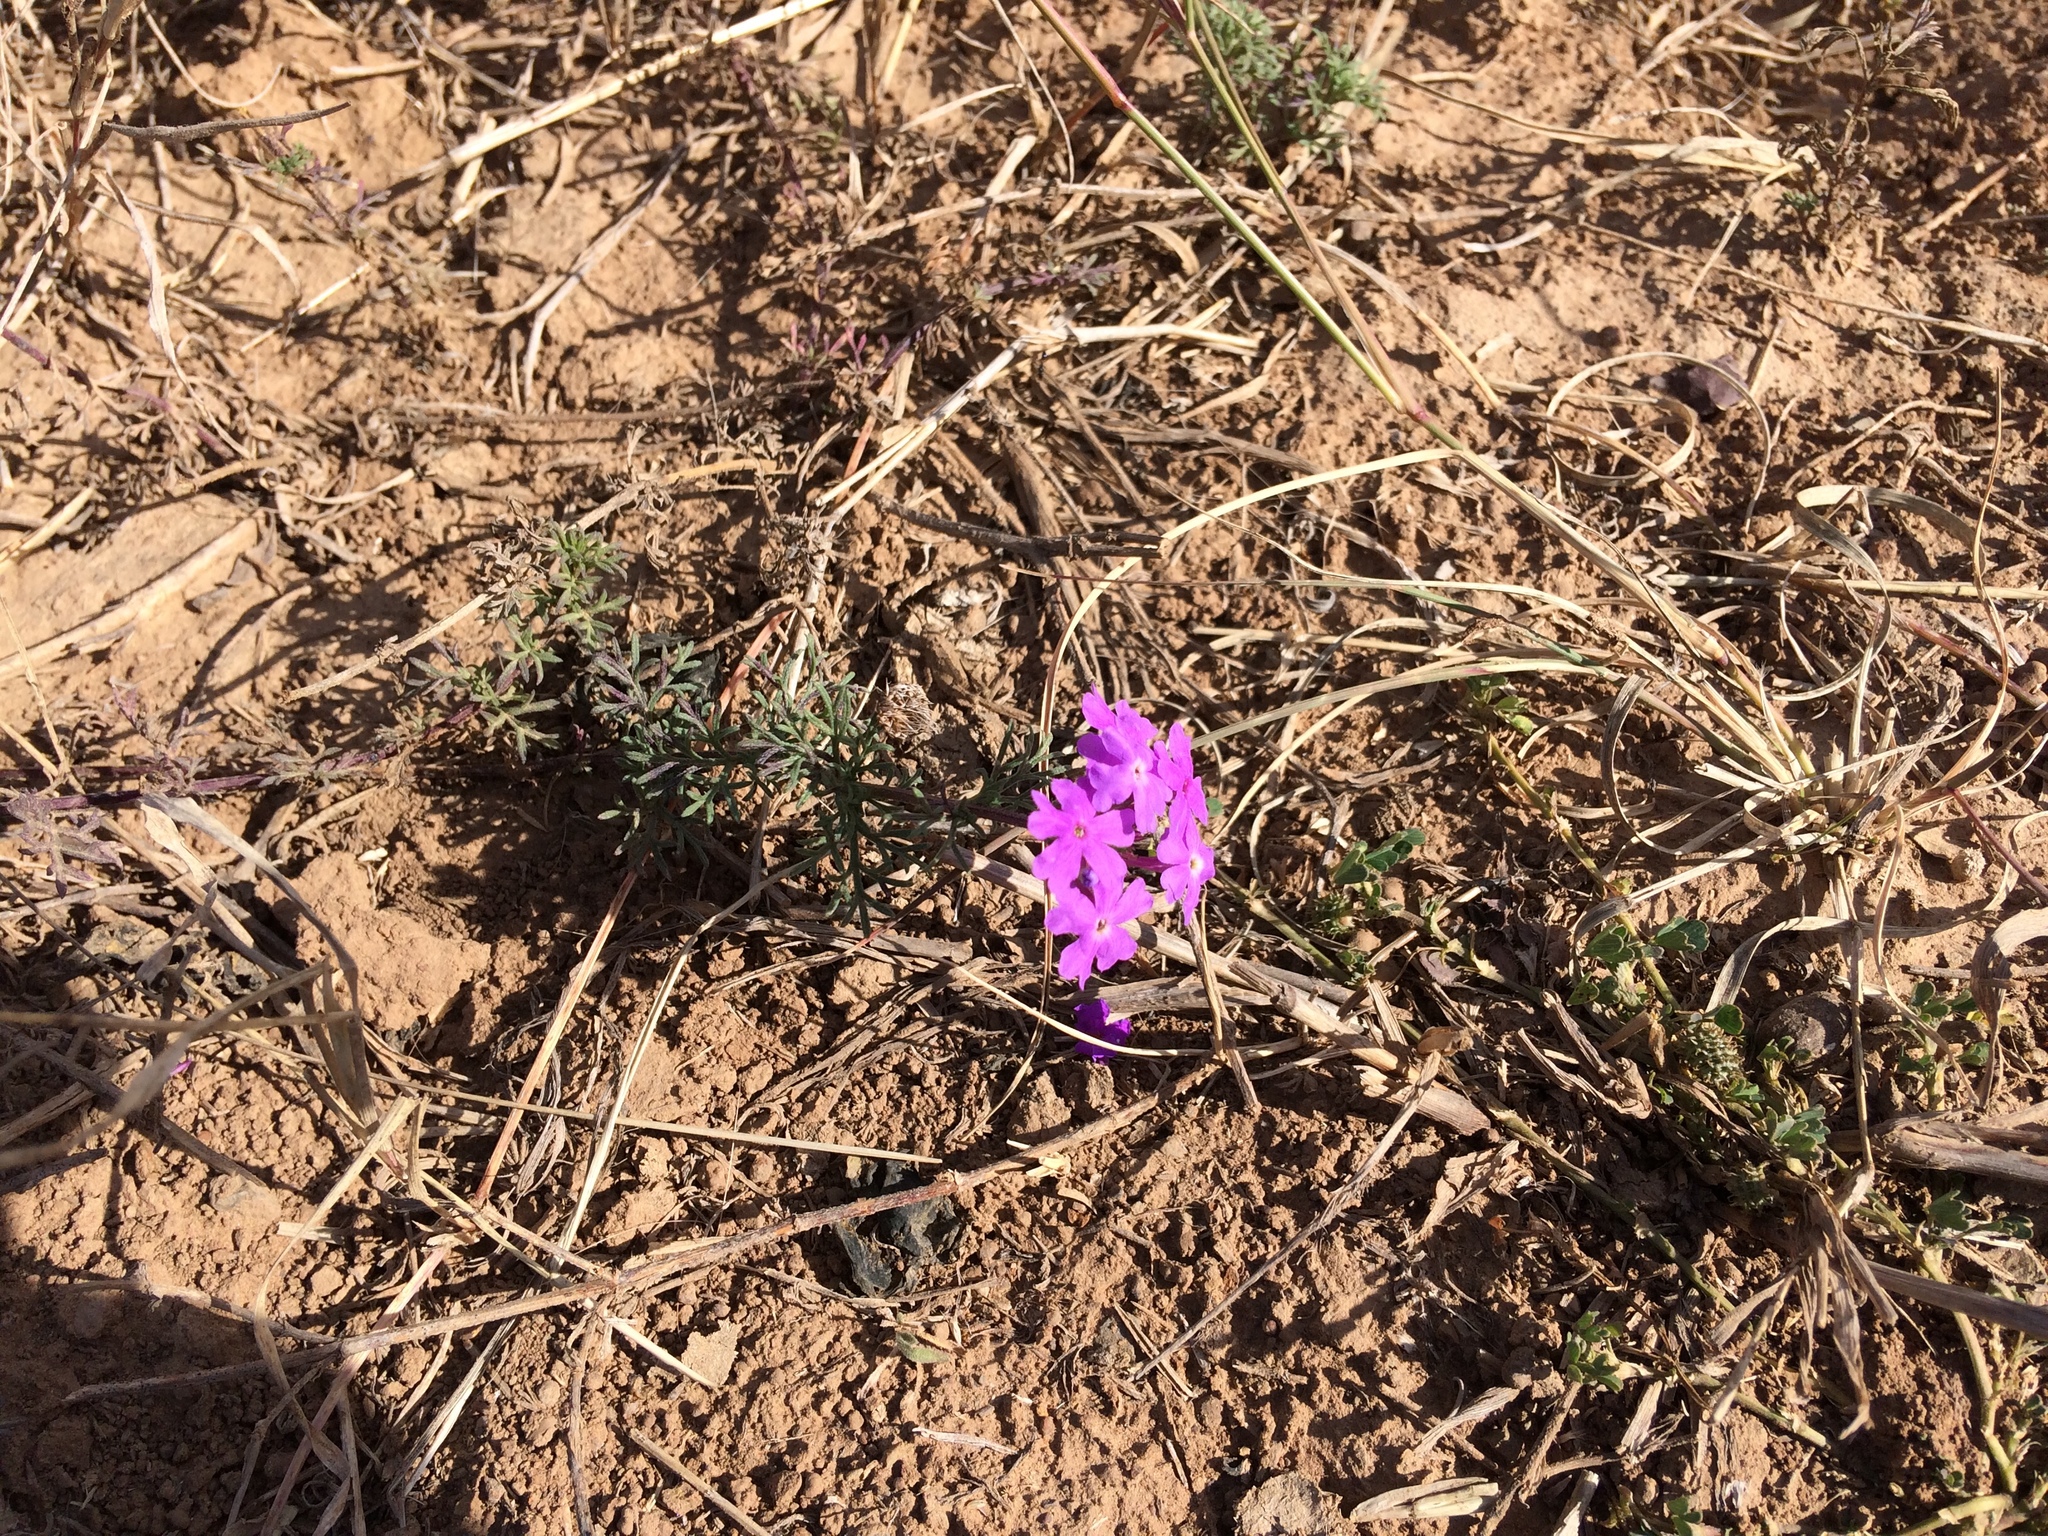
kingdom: Plantae
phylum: Tracheophyta
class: Magnoliopsida
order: Lamiales
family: Verbenaceae
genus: Verbena
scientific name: Verbena aristigera
